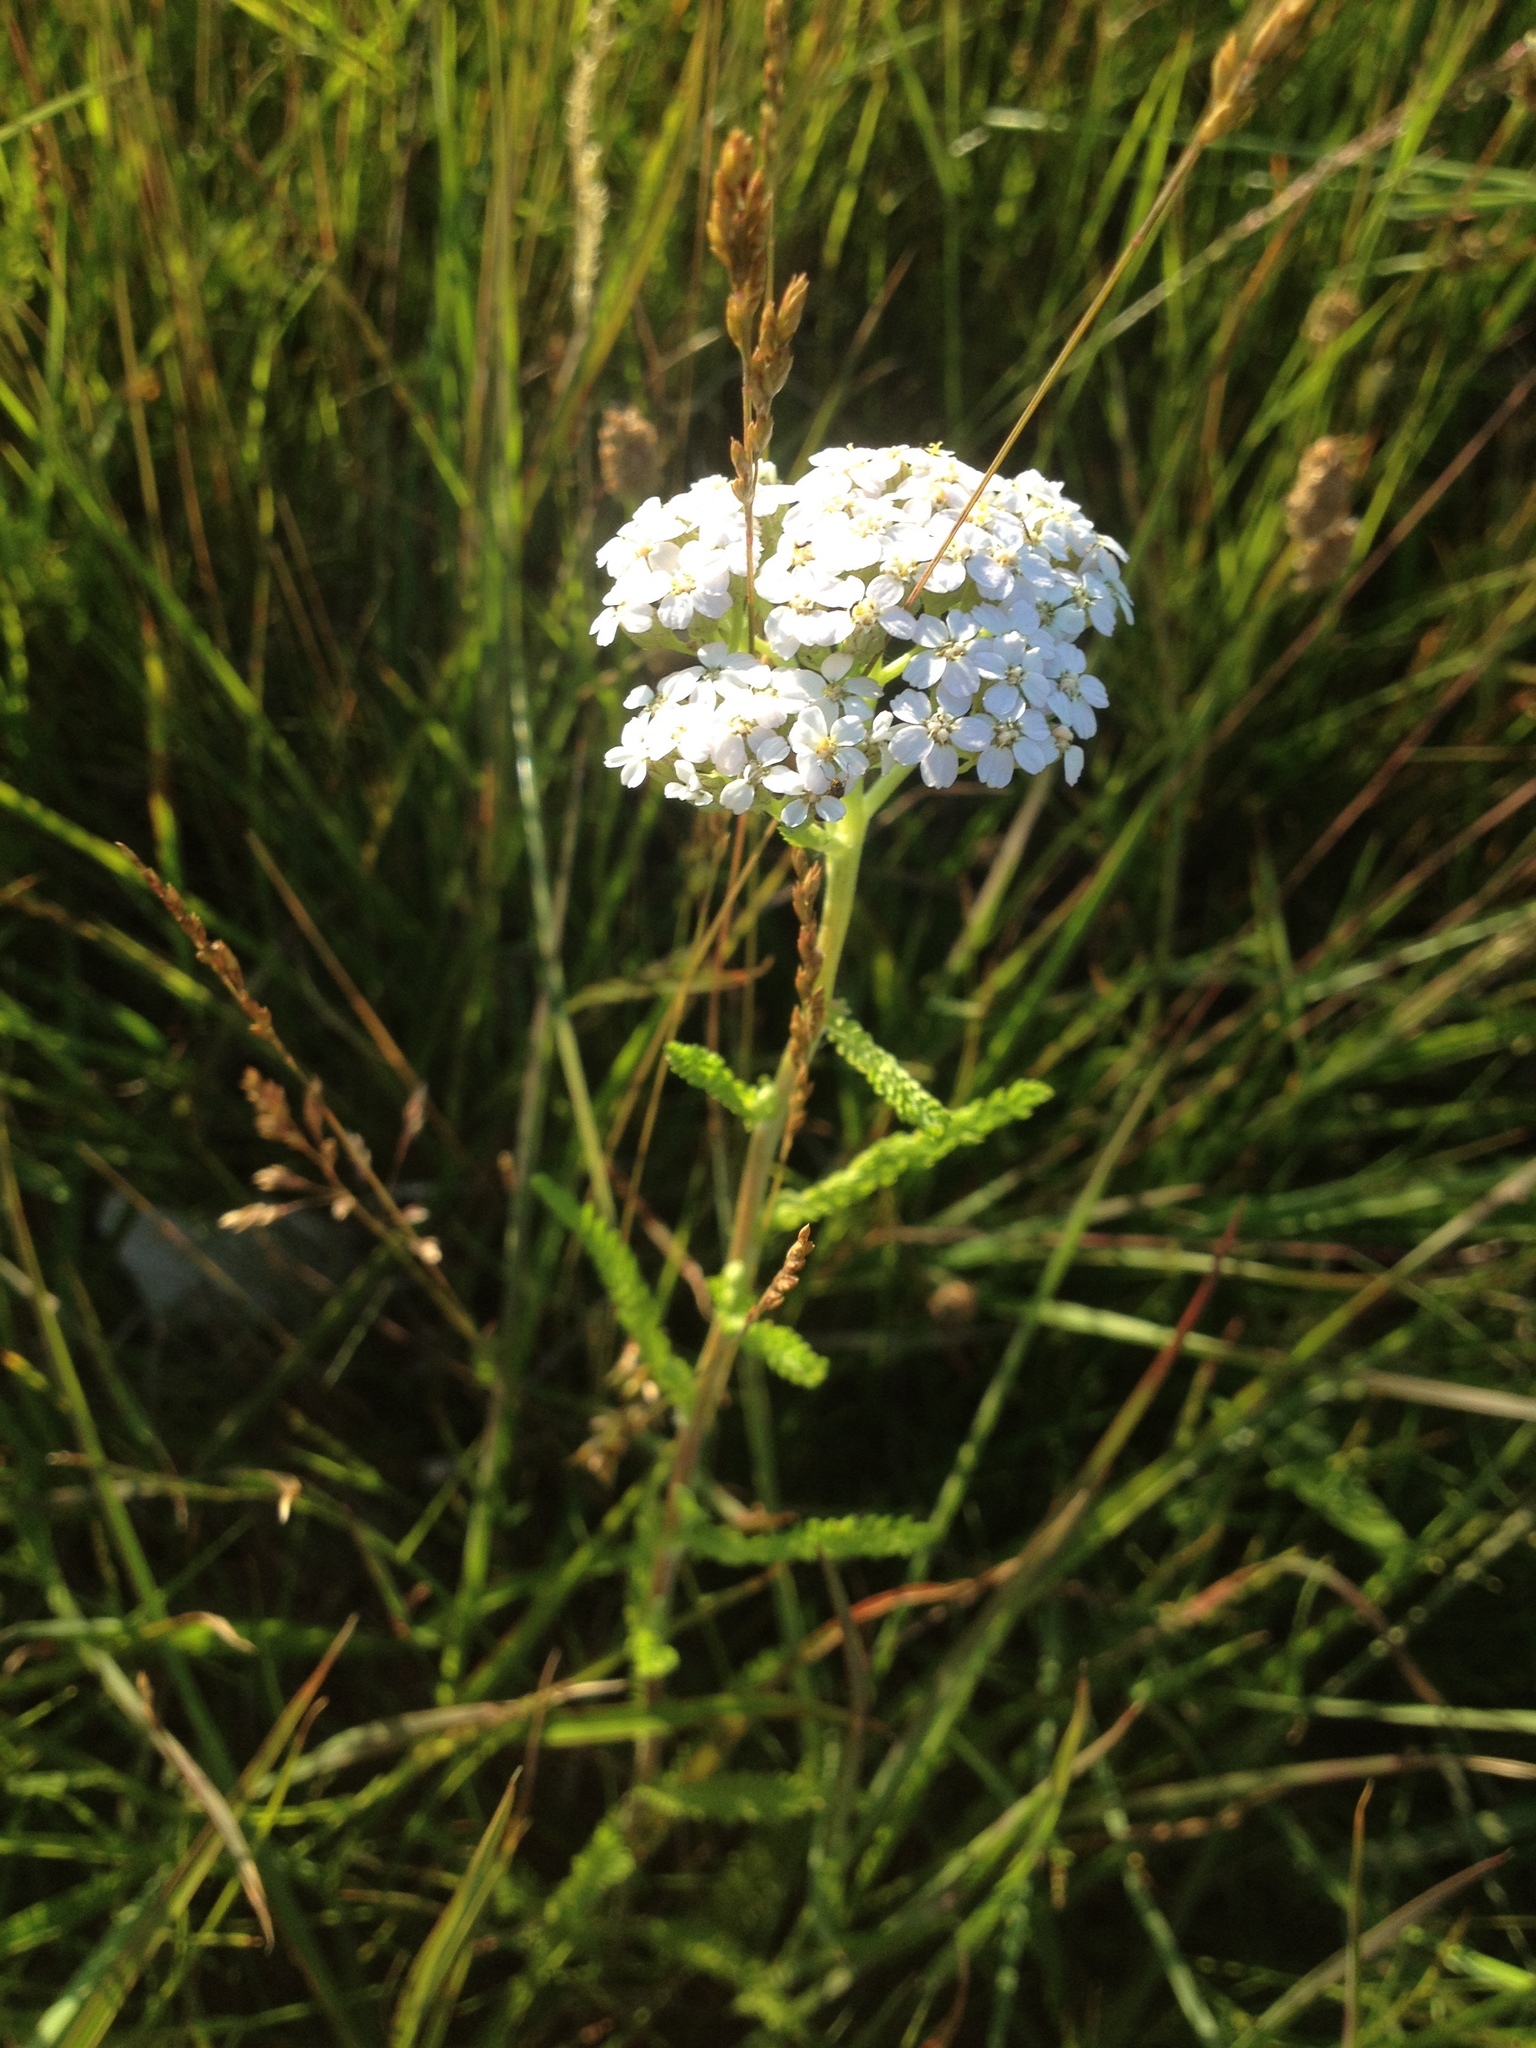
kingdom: Plantae
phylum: Tracheophyta
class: Magnoliopsida
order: Asterales
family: Asteraceae
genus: Achillea
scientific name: Achillea millefolium
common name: Yarrow
